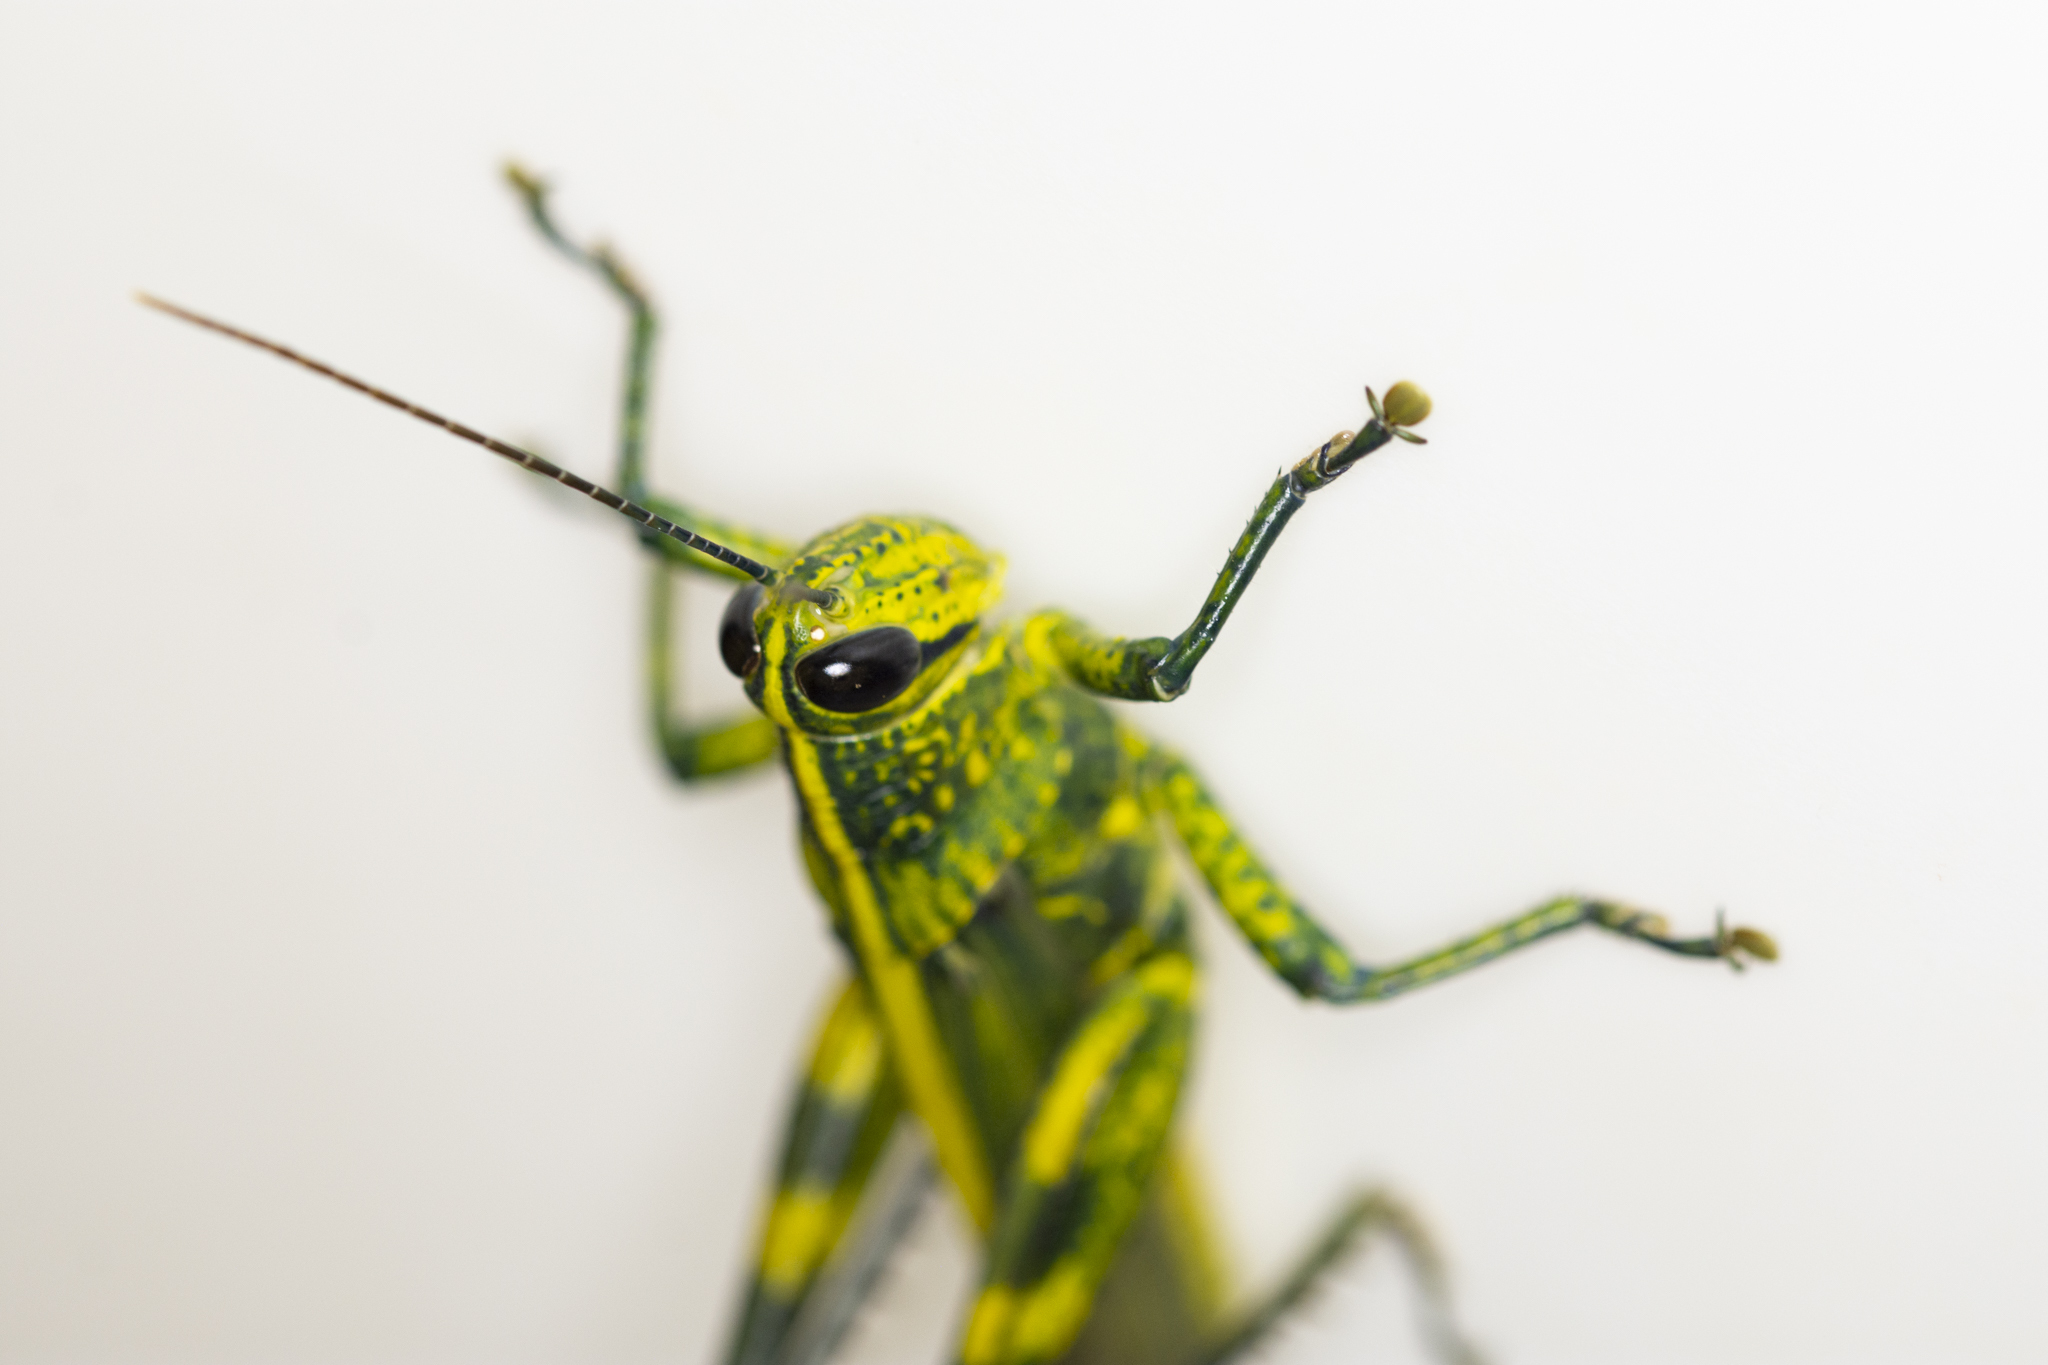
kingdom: Animalia
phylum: Arthropoda
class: Insecta
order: Orthoptera
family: Acrididae
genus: Valanga
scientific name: Valanga nigricornis
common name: Javanese bird grasshopper
